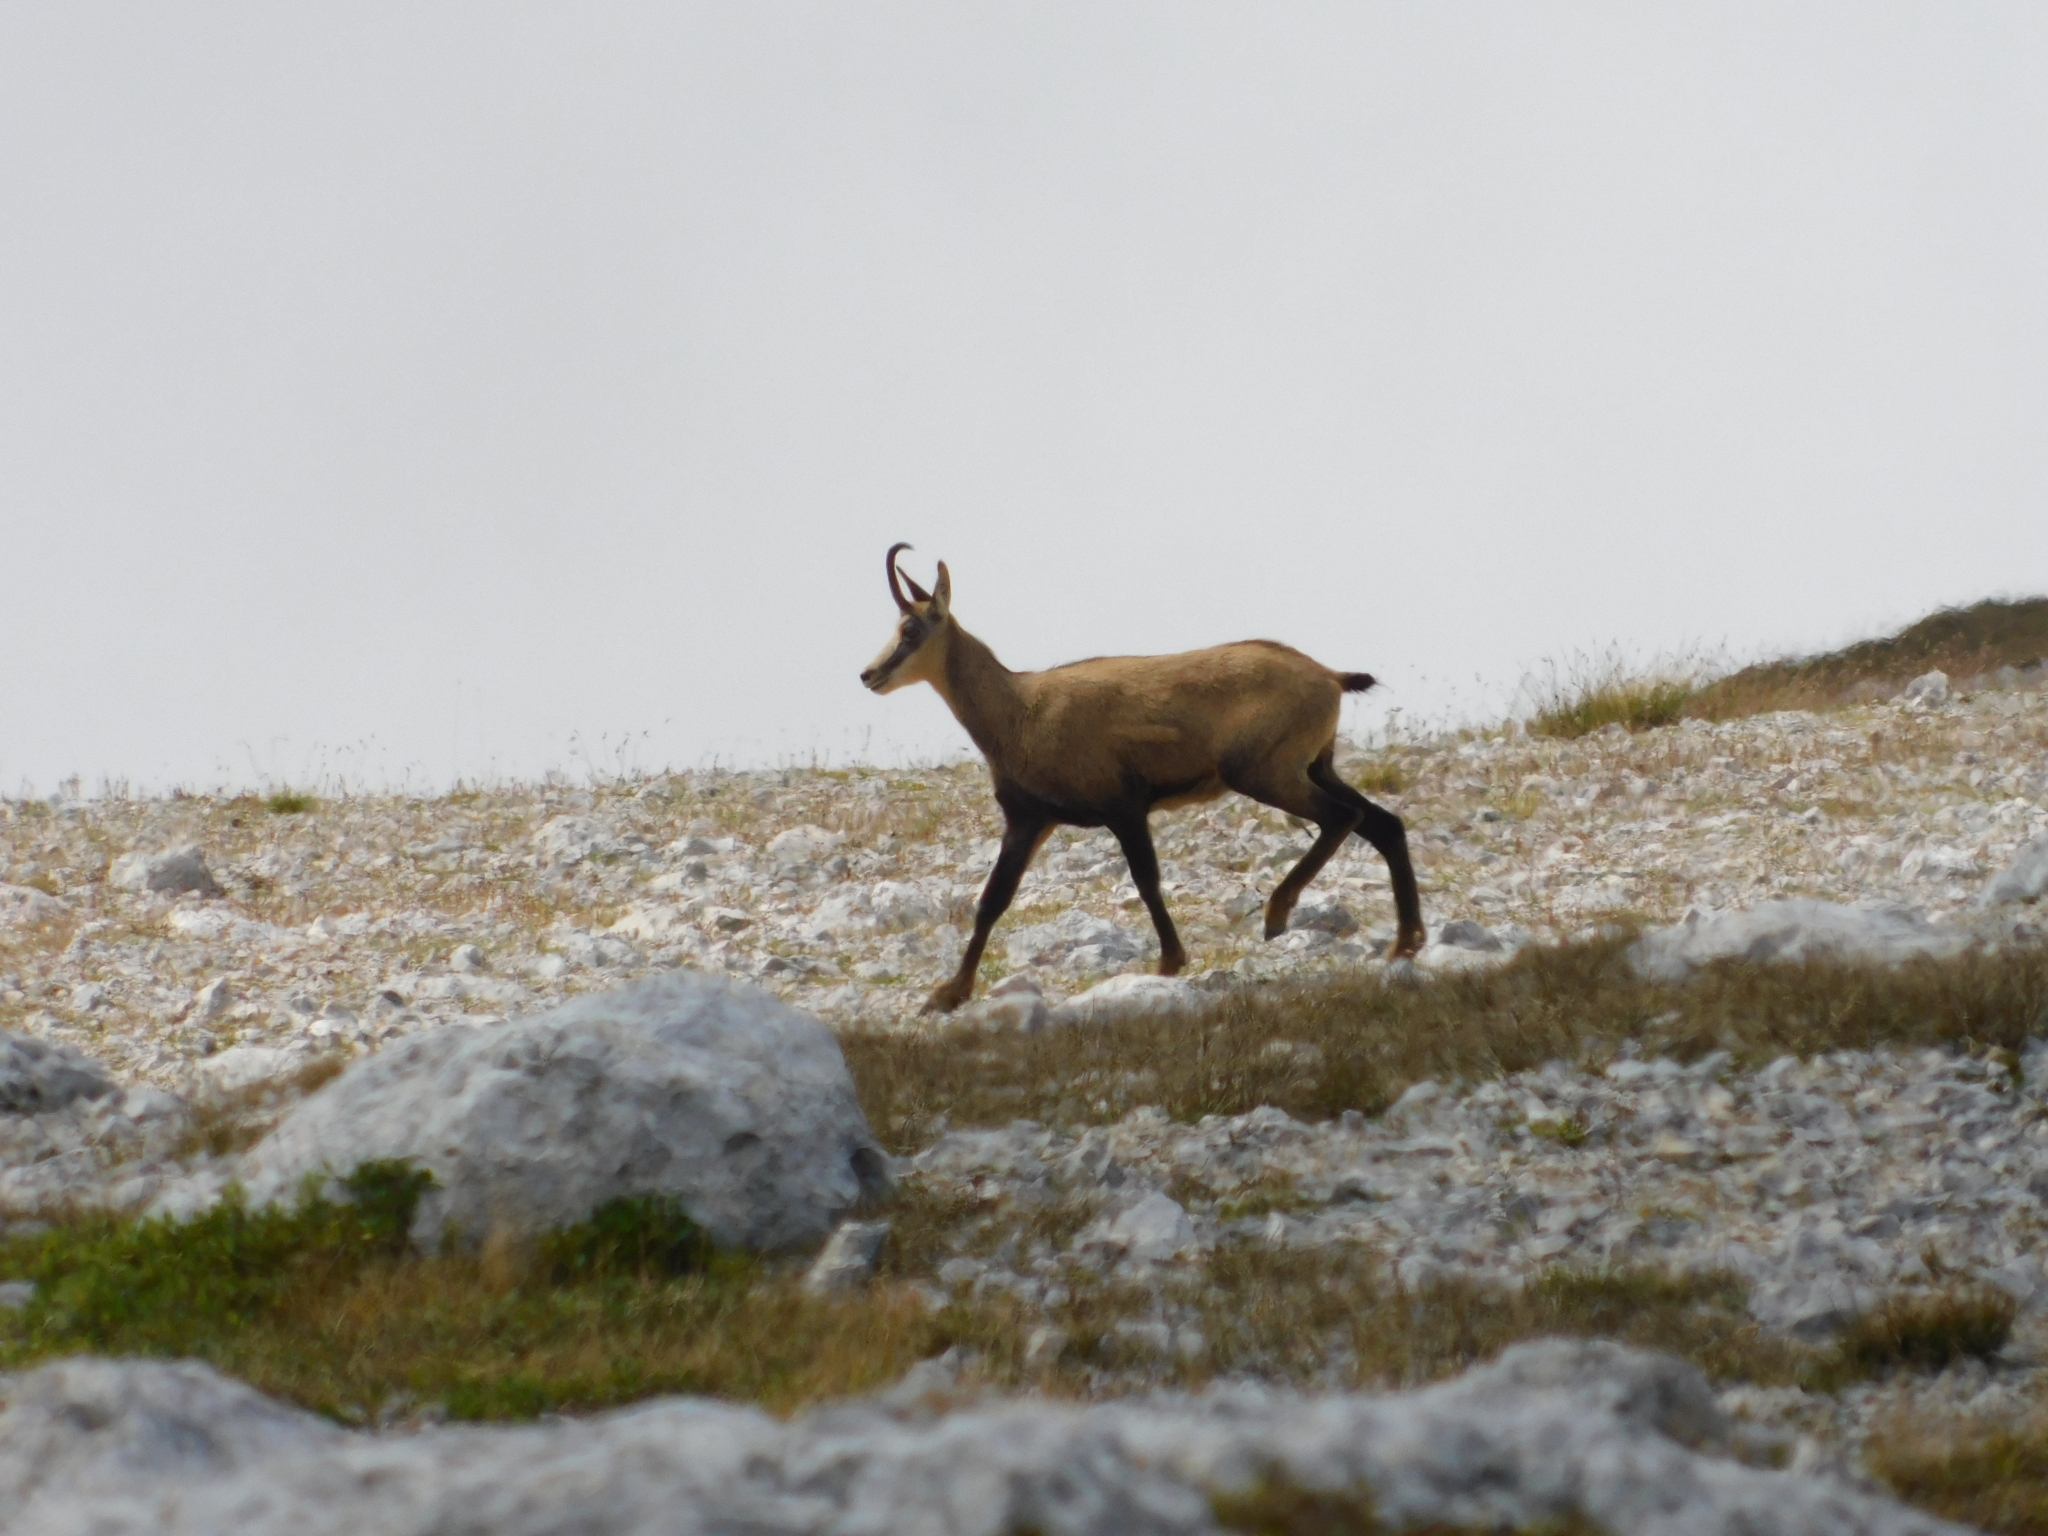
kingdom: Animalia
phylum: Chordata
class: Mammalia
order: Artiodactyla
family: Bovidae
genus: Rupicapra
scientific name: Rupicapra rupicapra
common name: Chamois
